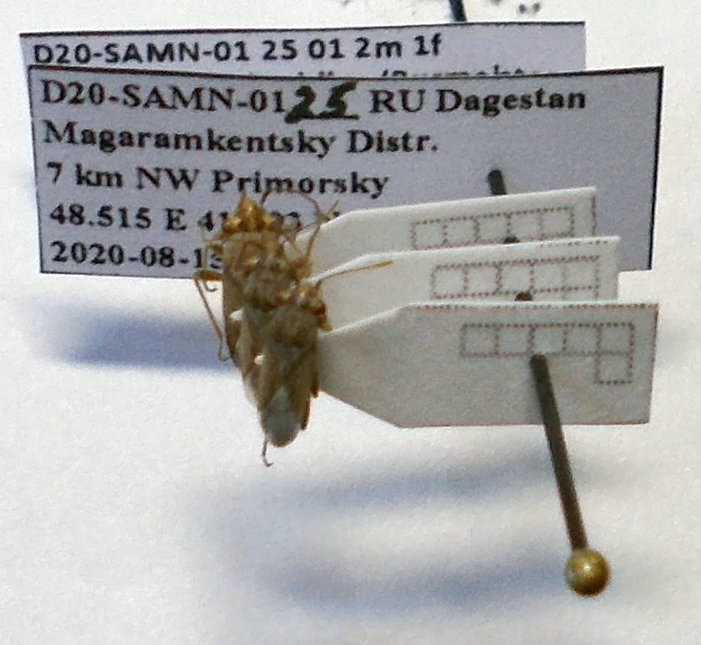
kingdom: Animalia
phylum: Arthropoda
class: Insecta
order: Hemiptera
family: Geocoridae
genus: Henestaris
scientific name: Henestaris halophilus
